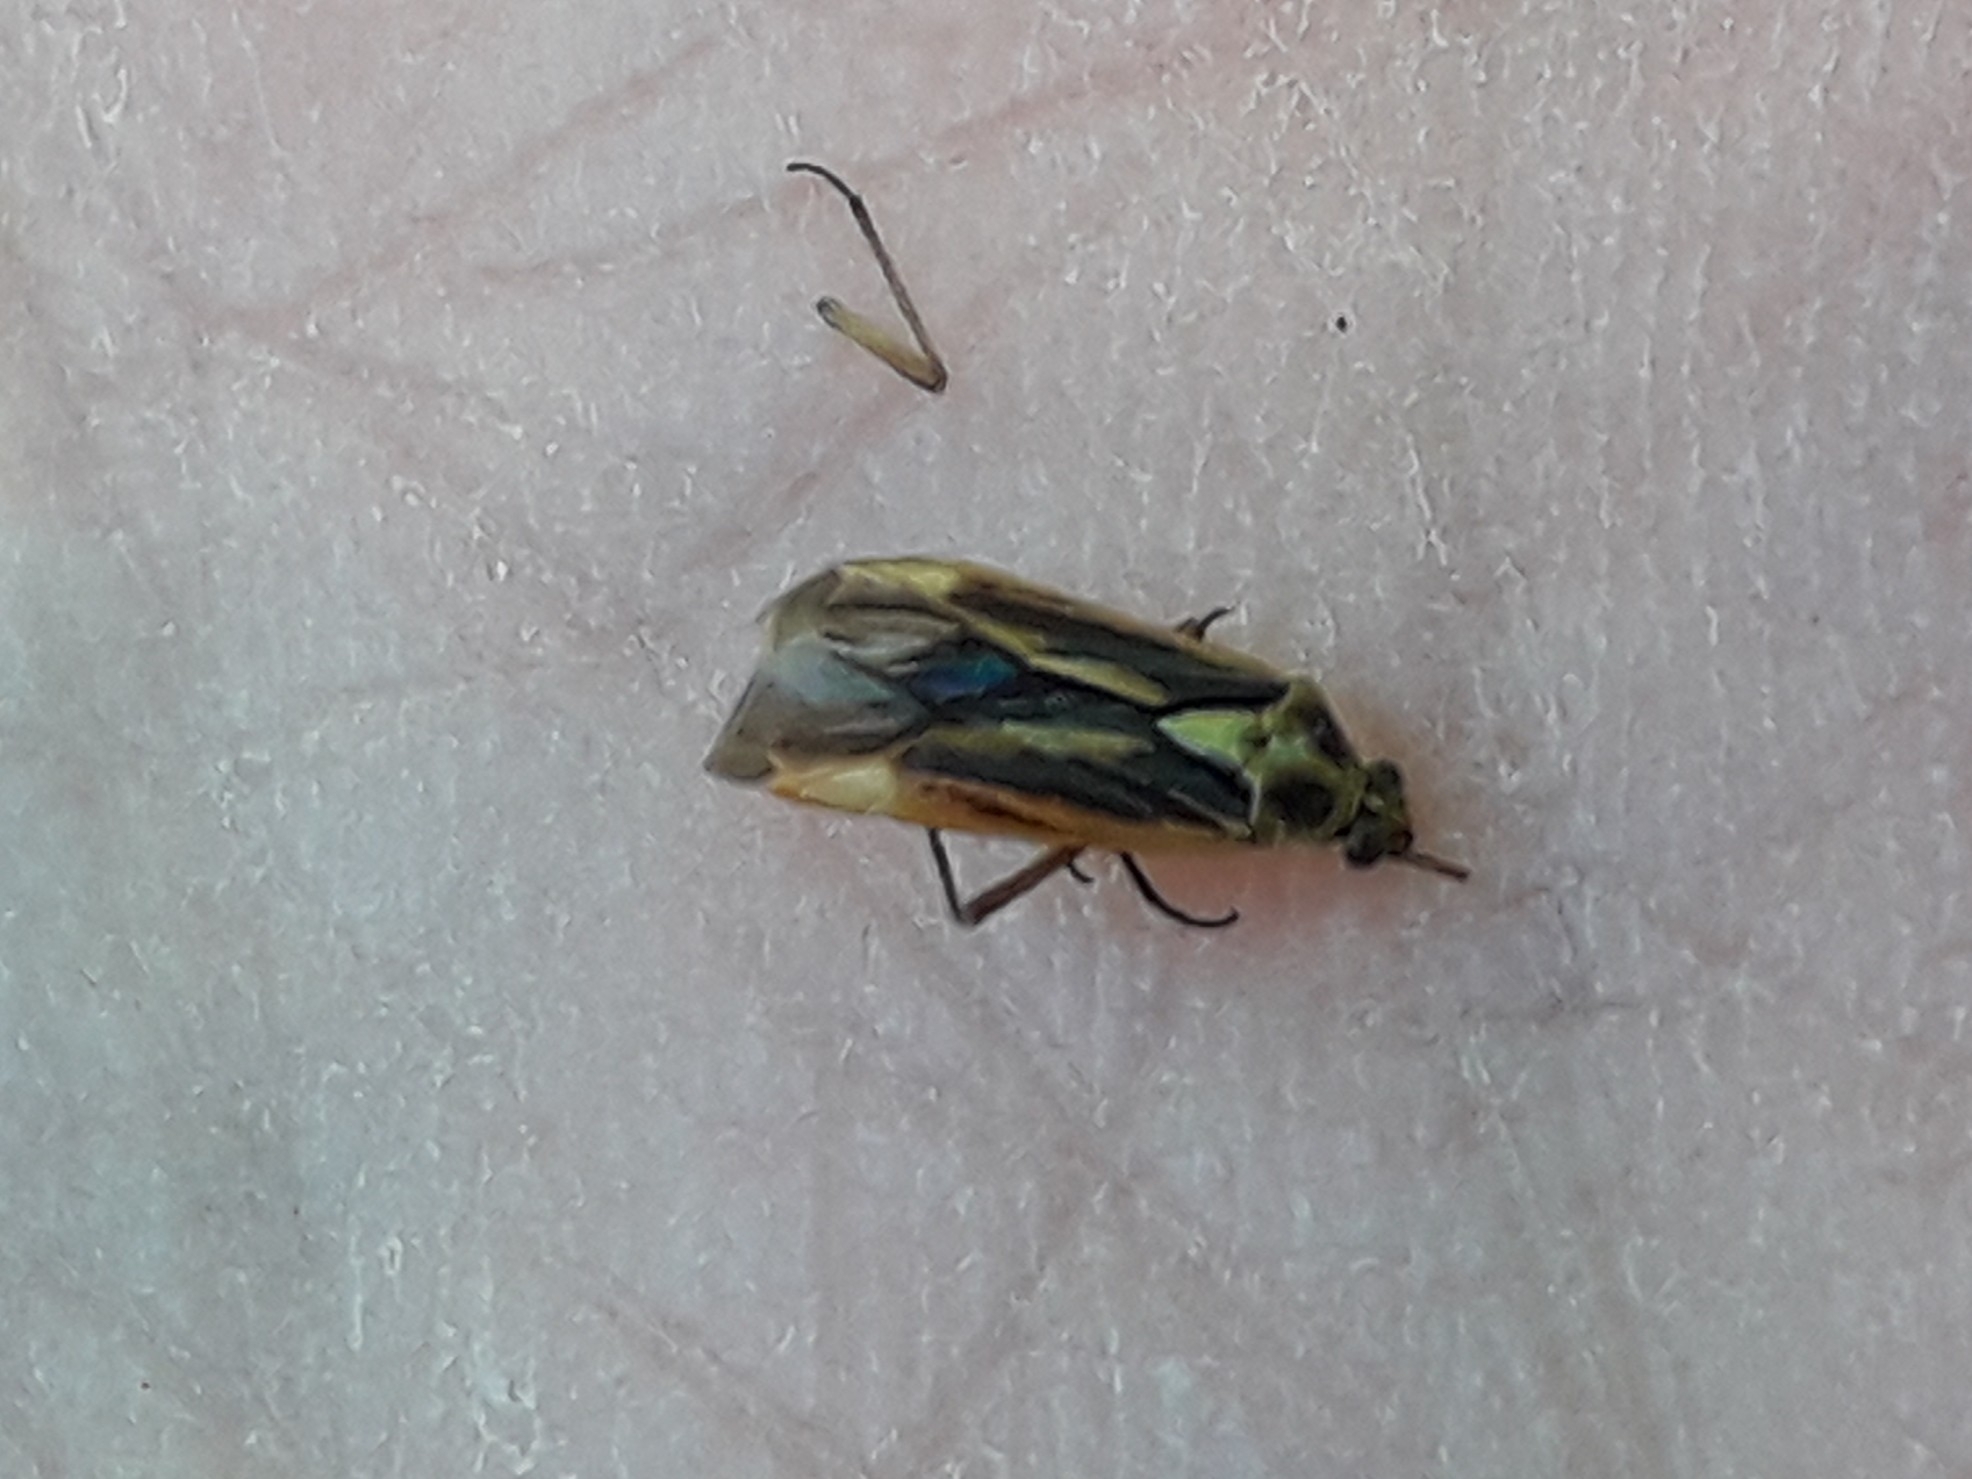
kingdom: Animalia
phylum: Arthropoda
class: Insecta
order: Hemiptera
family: Miridae
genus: Stenotus
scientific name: Stenotus binotatus
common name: Plant bug
